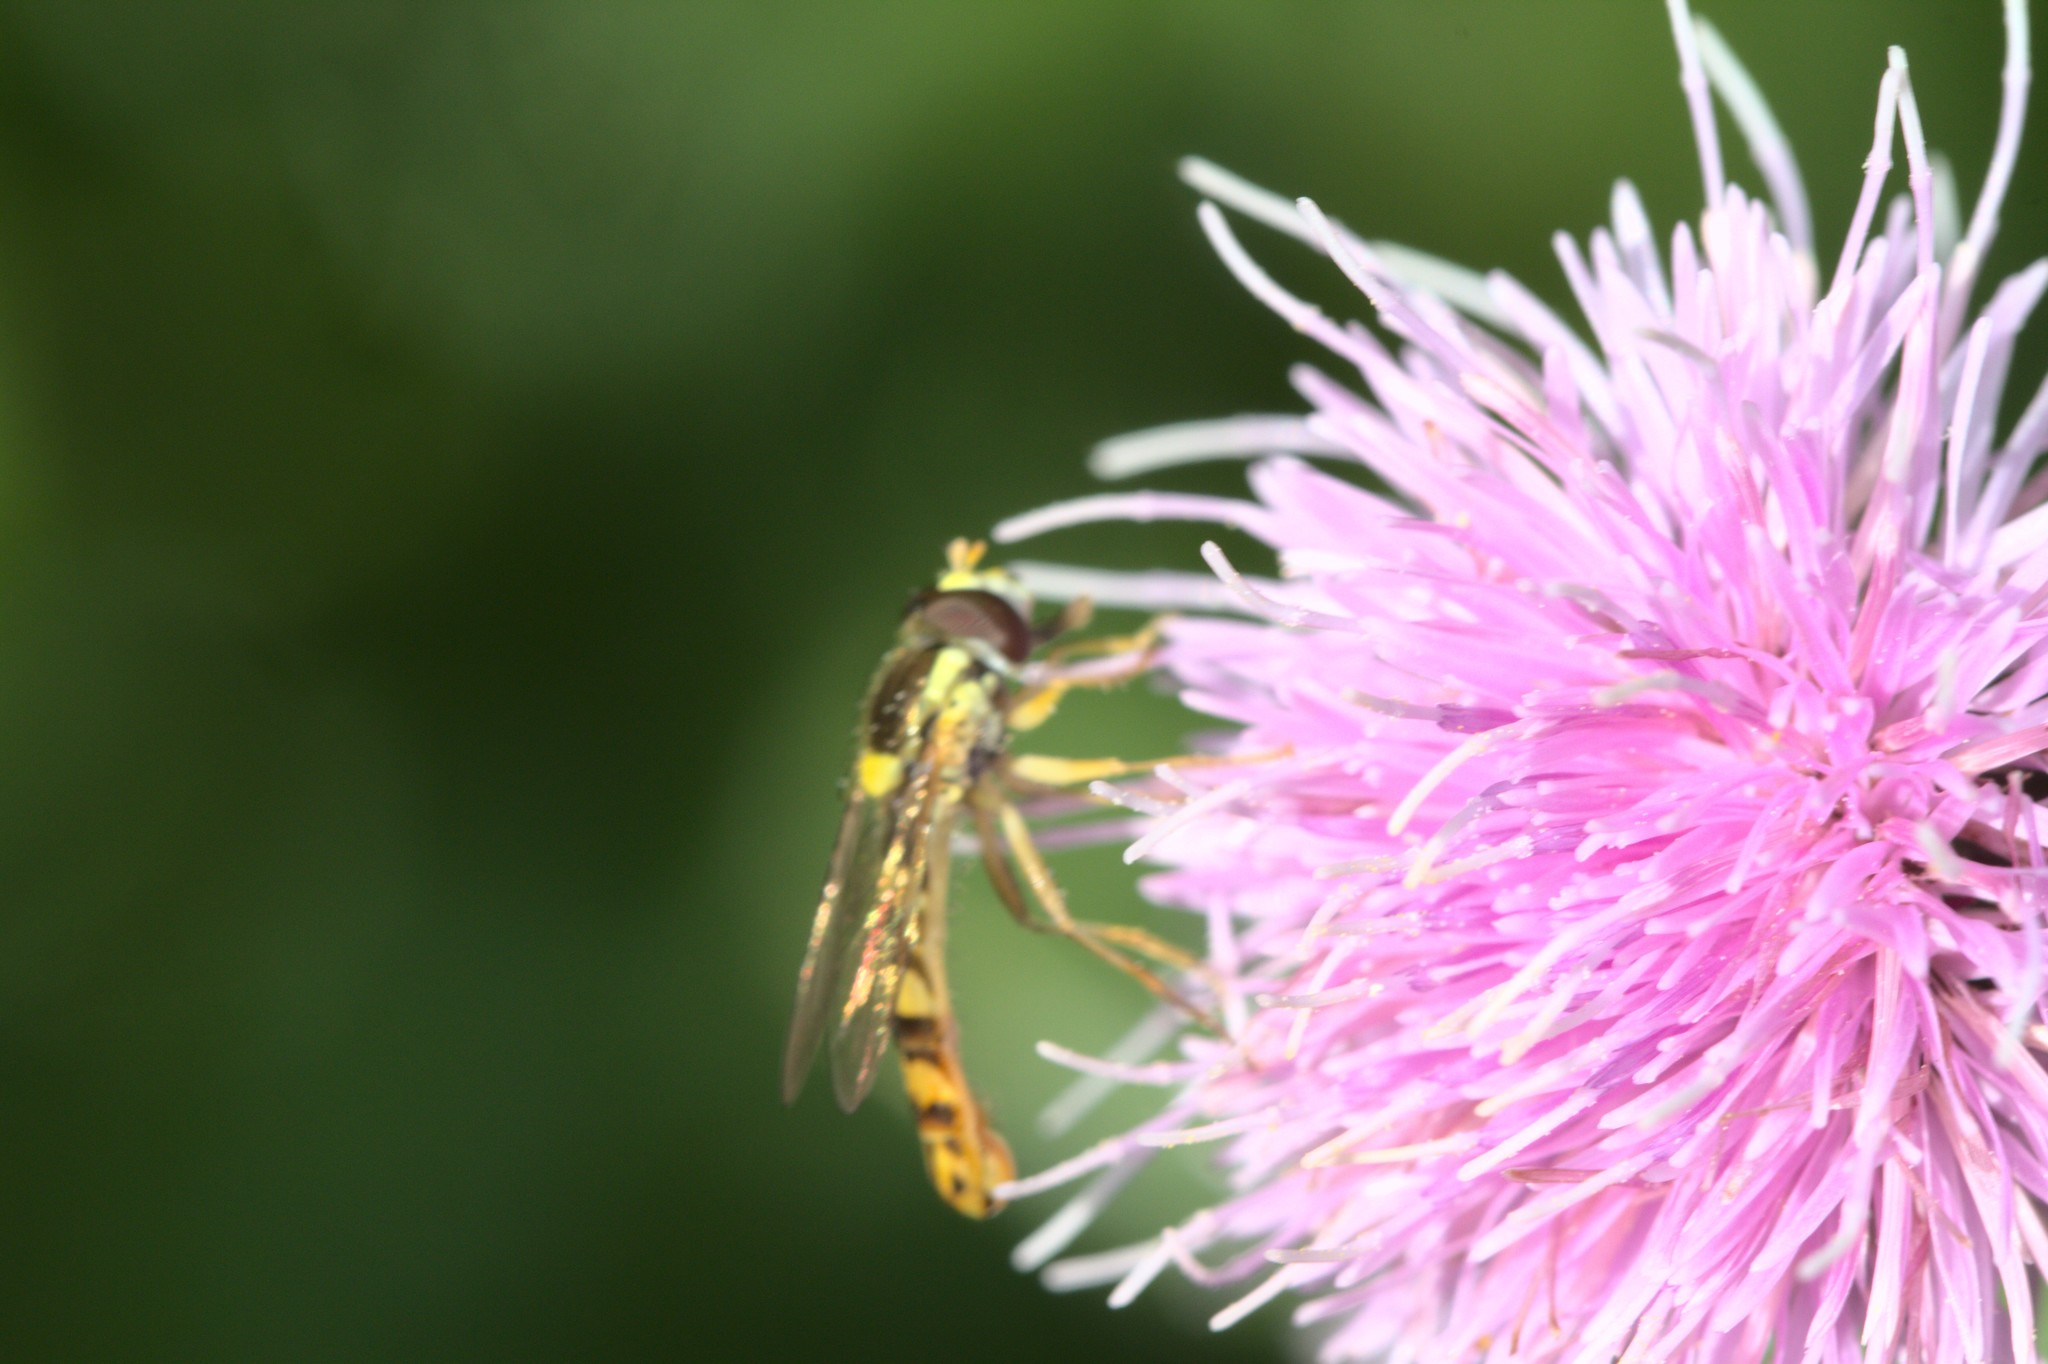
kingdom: Animalia
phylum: Arthropoda
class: Insecta
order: Diptera
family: Syrphidae
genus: Sphaerophoria
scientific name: Sphaerophoria scripta
